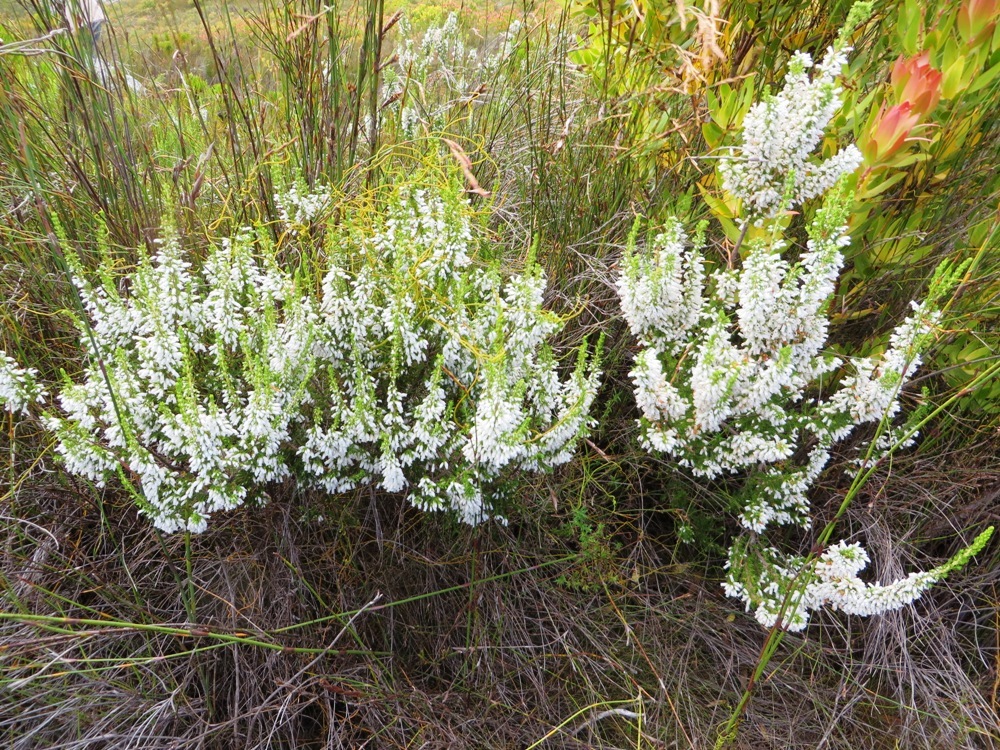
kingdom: Plantae
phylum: Tracheophyta
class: Magnoliopsida
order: Ericales
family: Ericaceae
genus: Erica
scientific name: Erica sitiens
